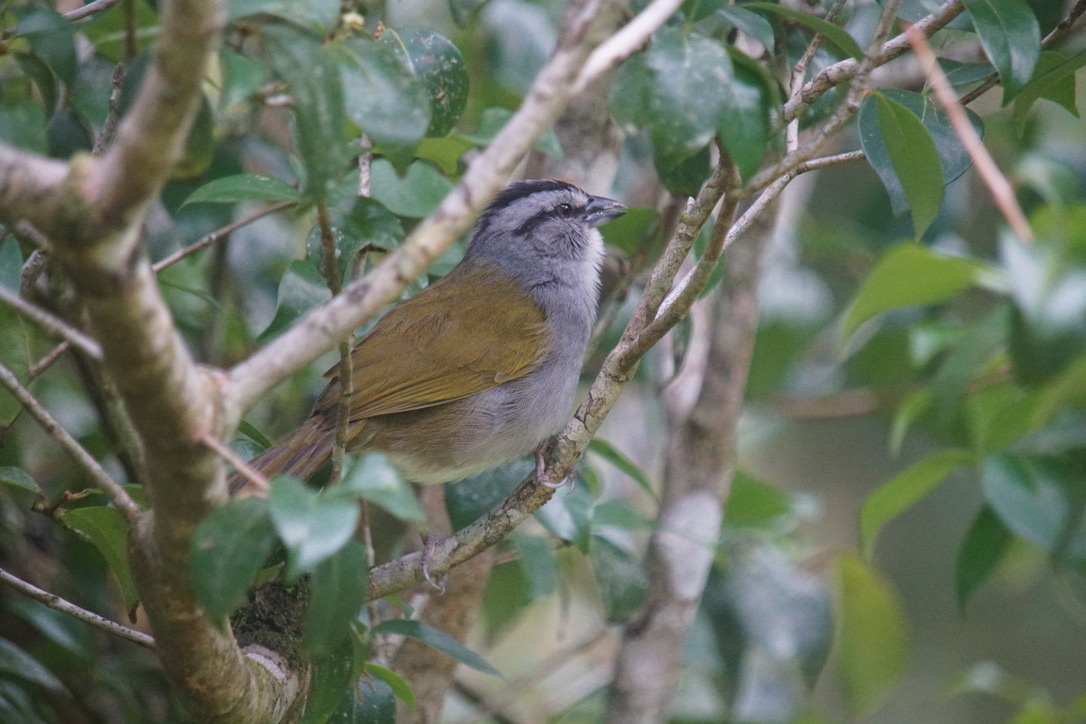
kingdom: Animalia
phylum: Chordata
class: Aves
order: Passeriformes
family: Passerellidae
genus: Arremonops
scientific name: Arremonops conirostris
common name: Black-striped sparrow
